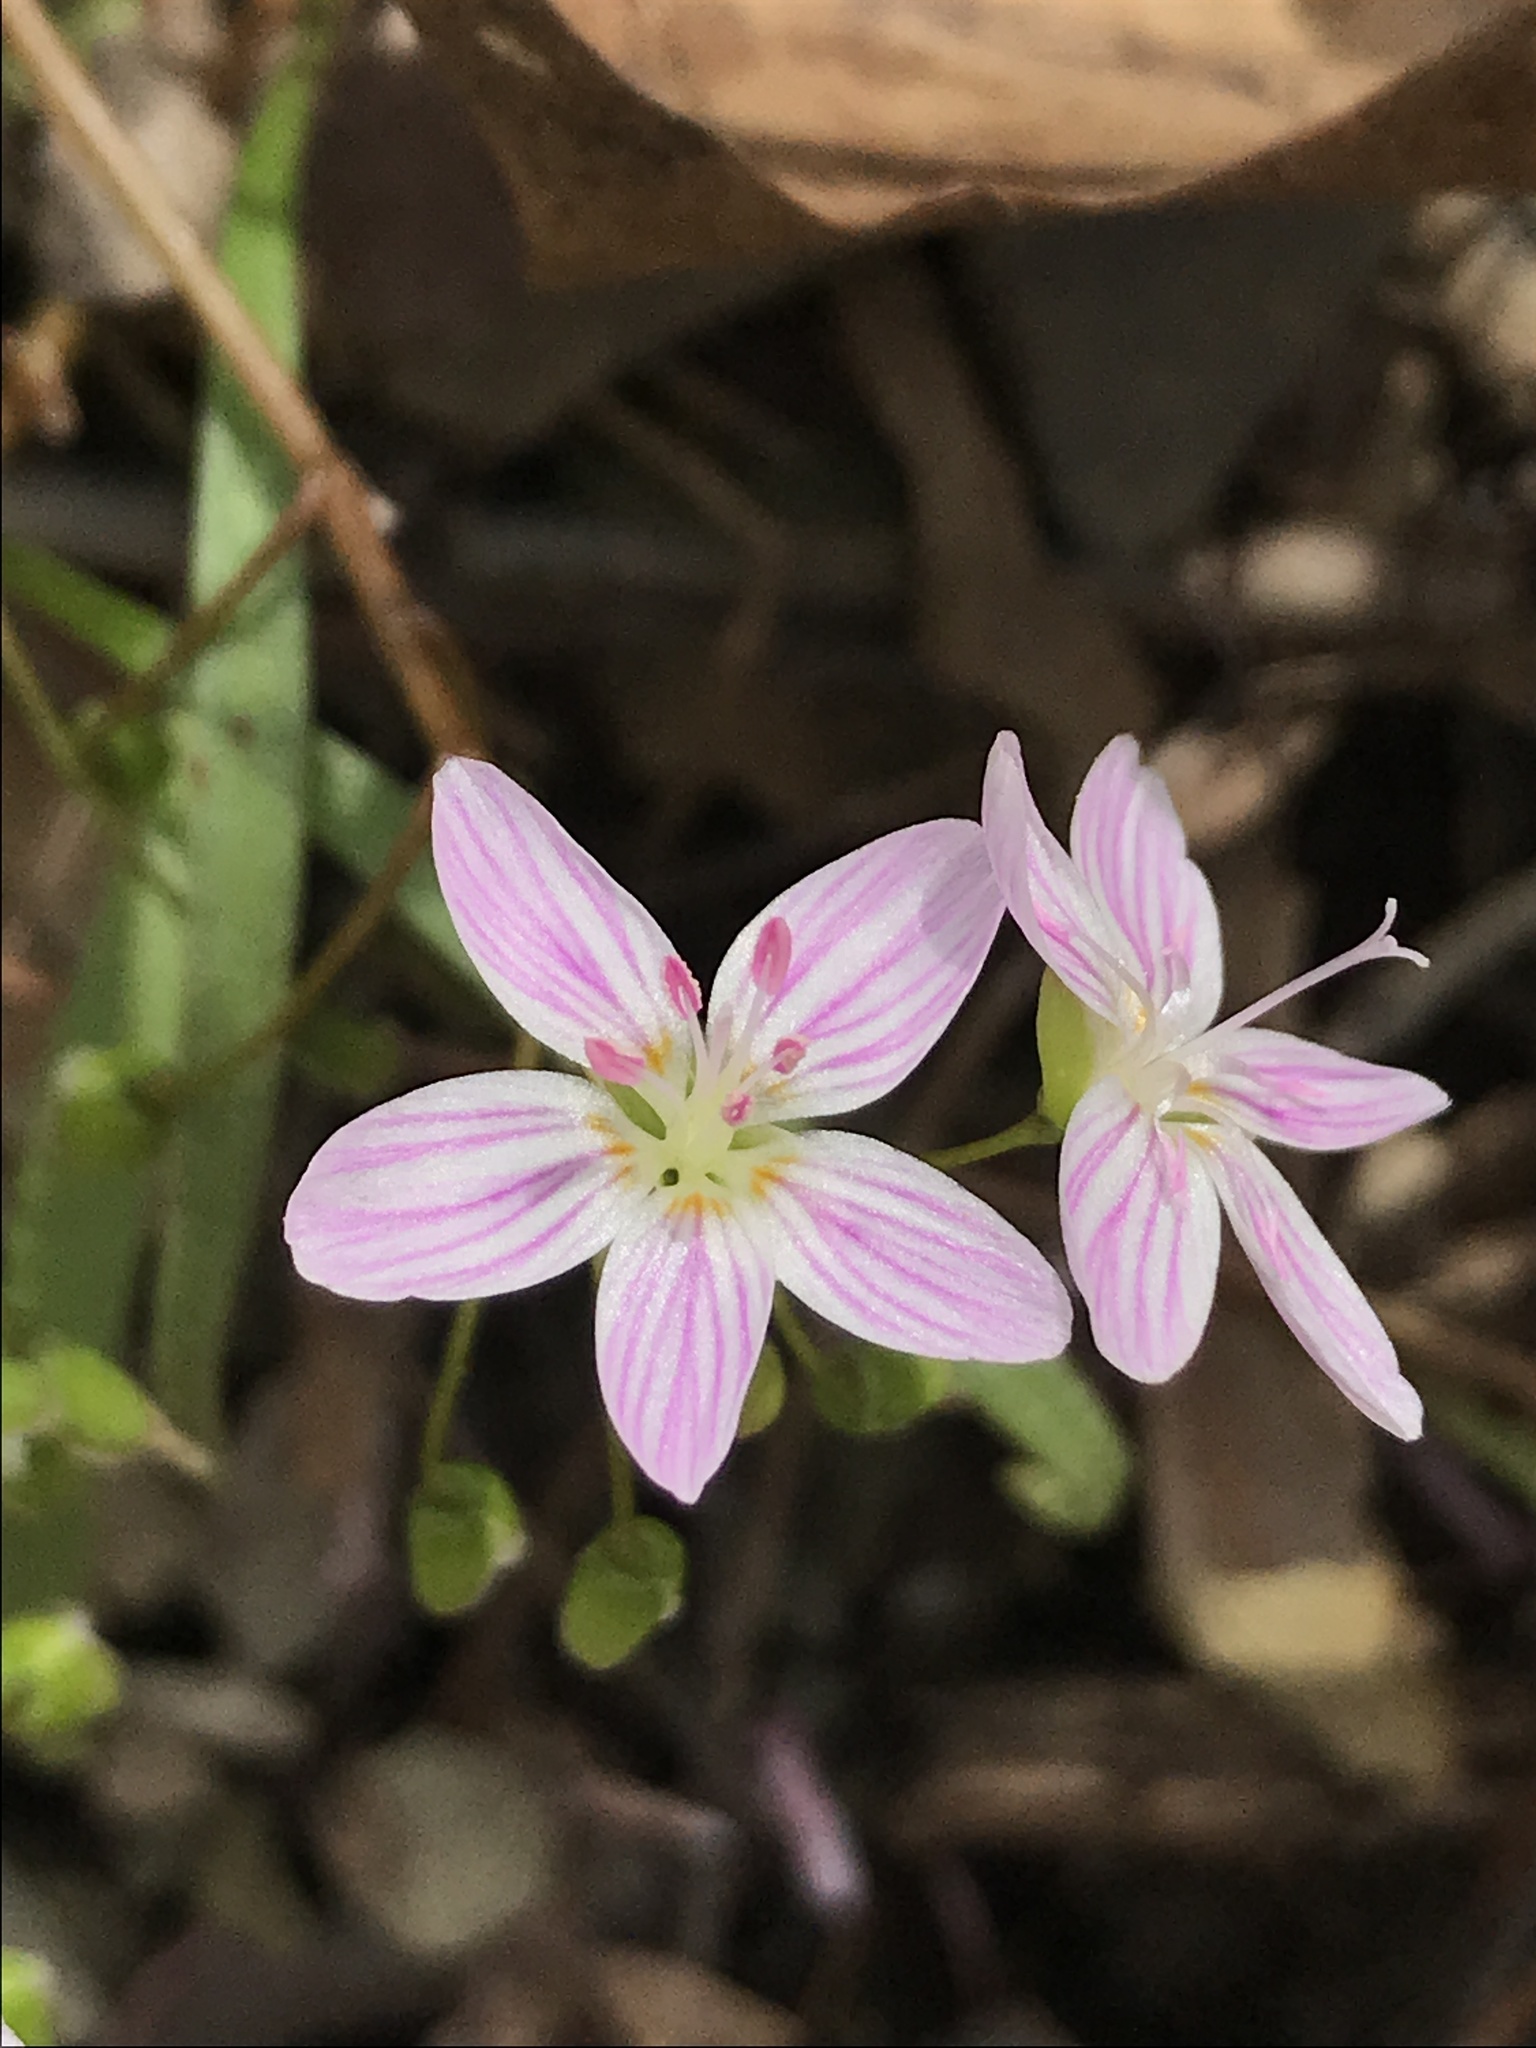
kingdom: Plantae
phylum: Tracheophyta
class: Magnoliopsida
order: Caryophyllales
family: Montiaceae
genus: Claytonia
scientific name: Claytonia virginica
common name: Virginia springbeauty
